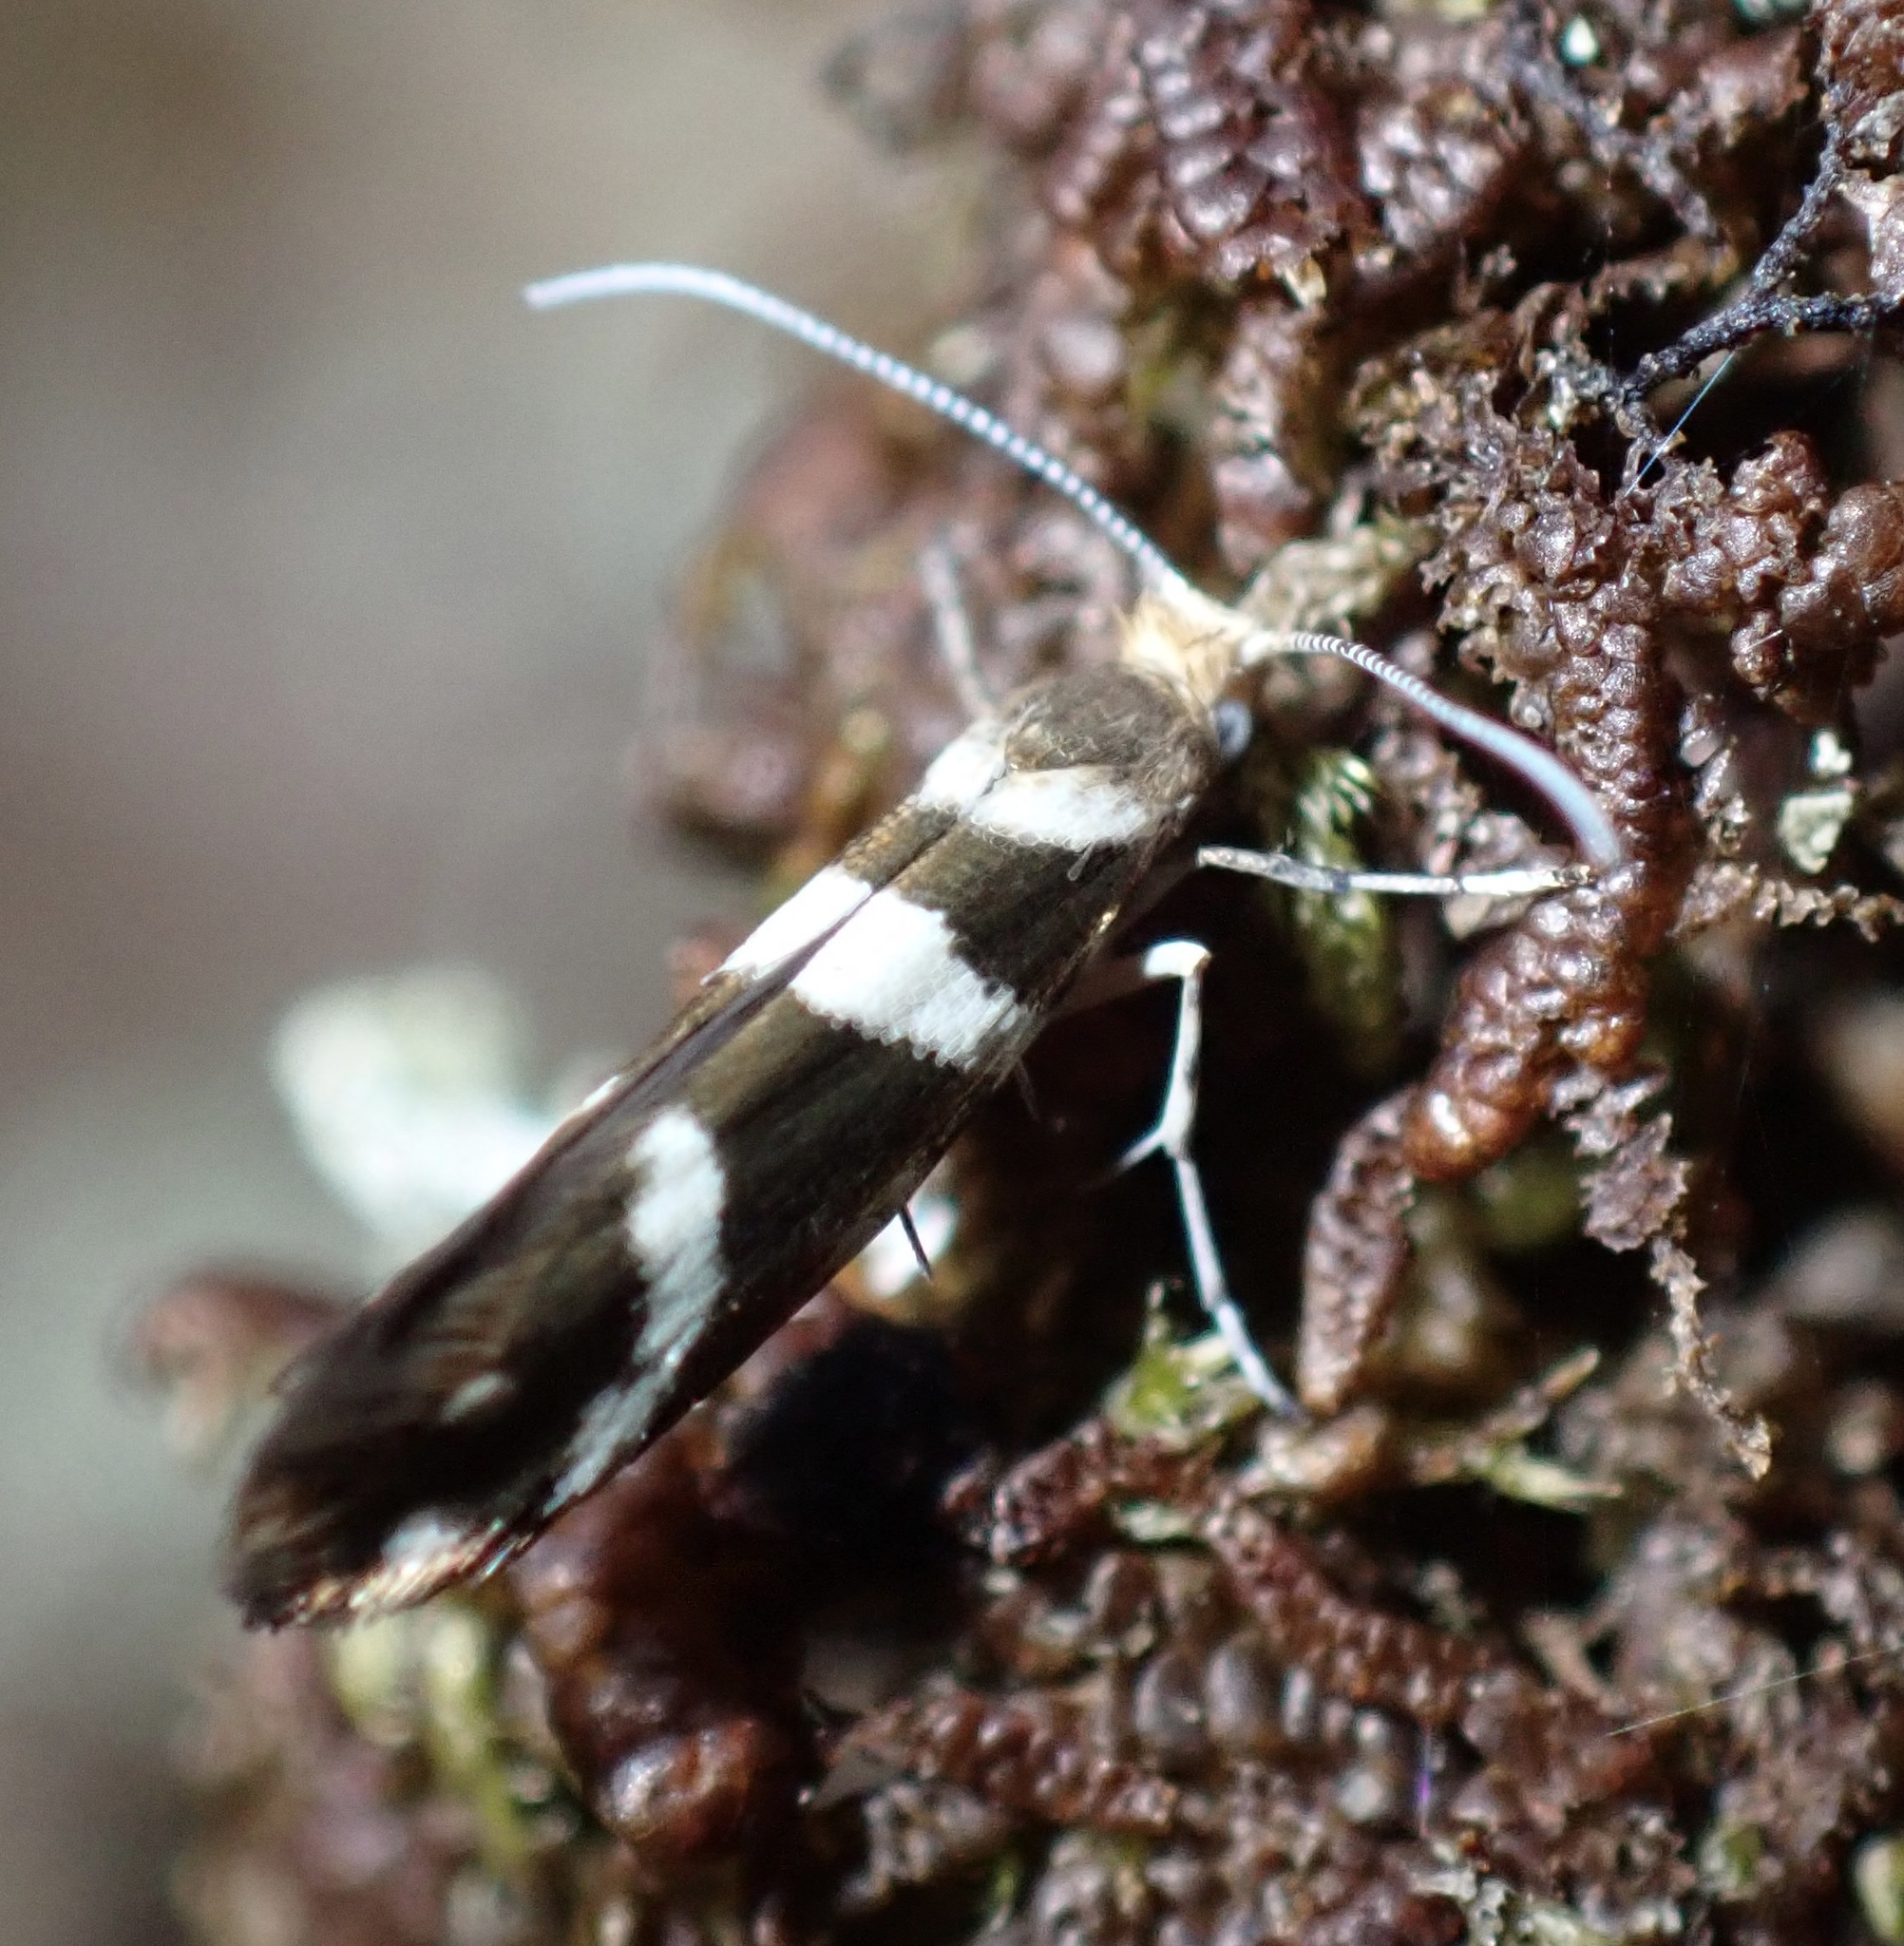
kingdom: Animalia
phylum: Arthropoda
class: Insecta
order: Lepidoptera
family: Argyresthiidae
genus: Argyresthia
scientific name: Argyresthia goedartella
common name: Golden argent
